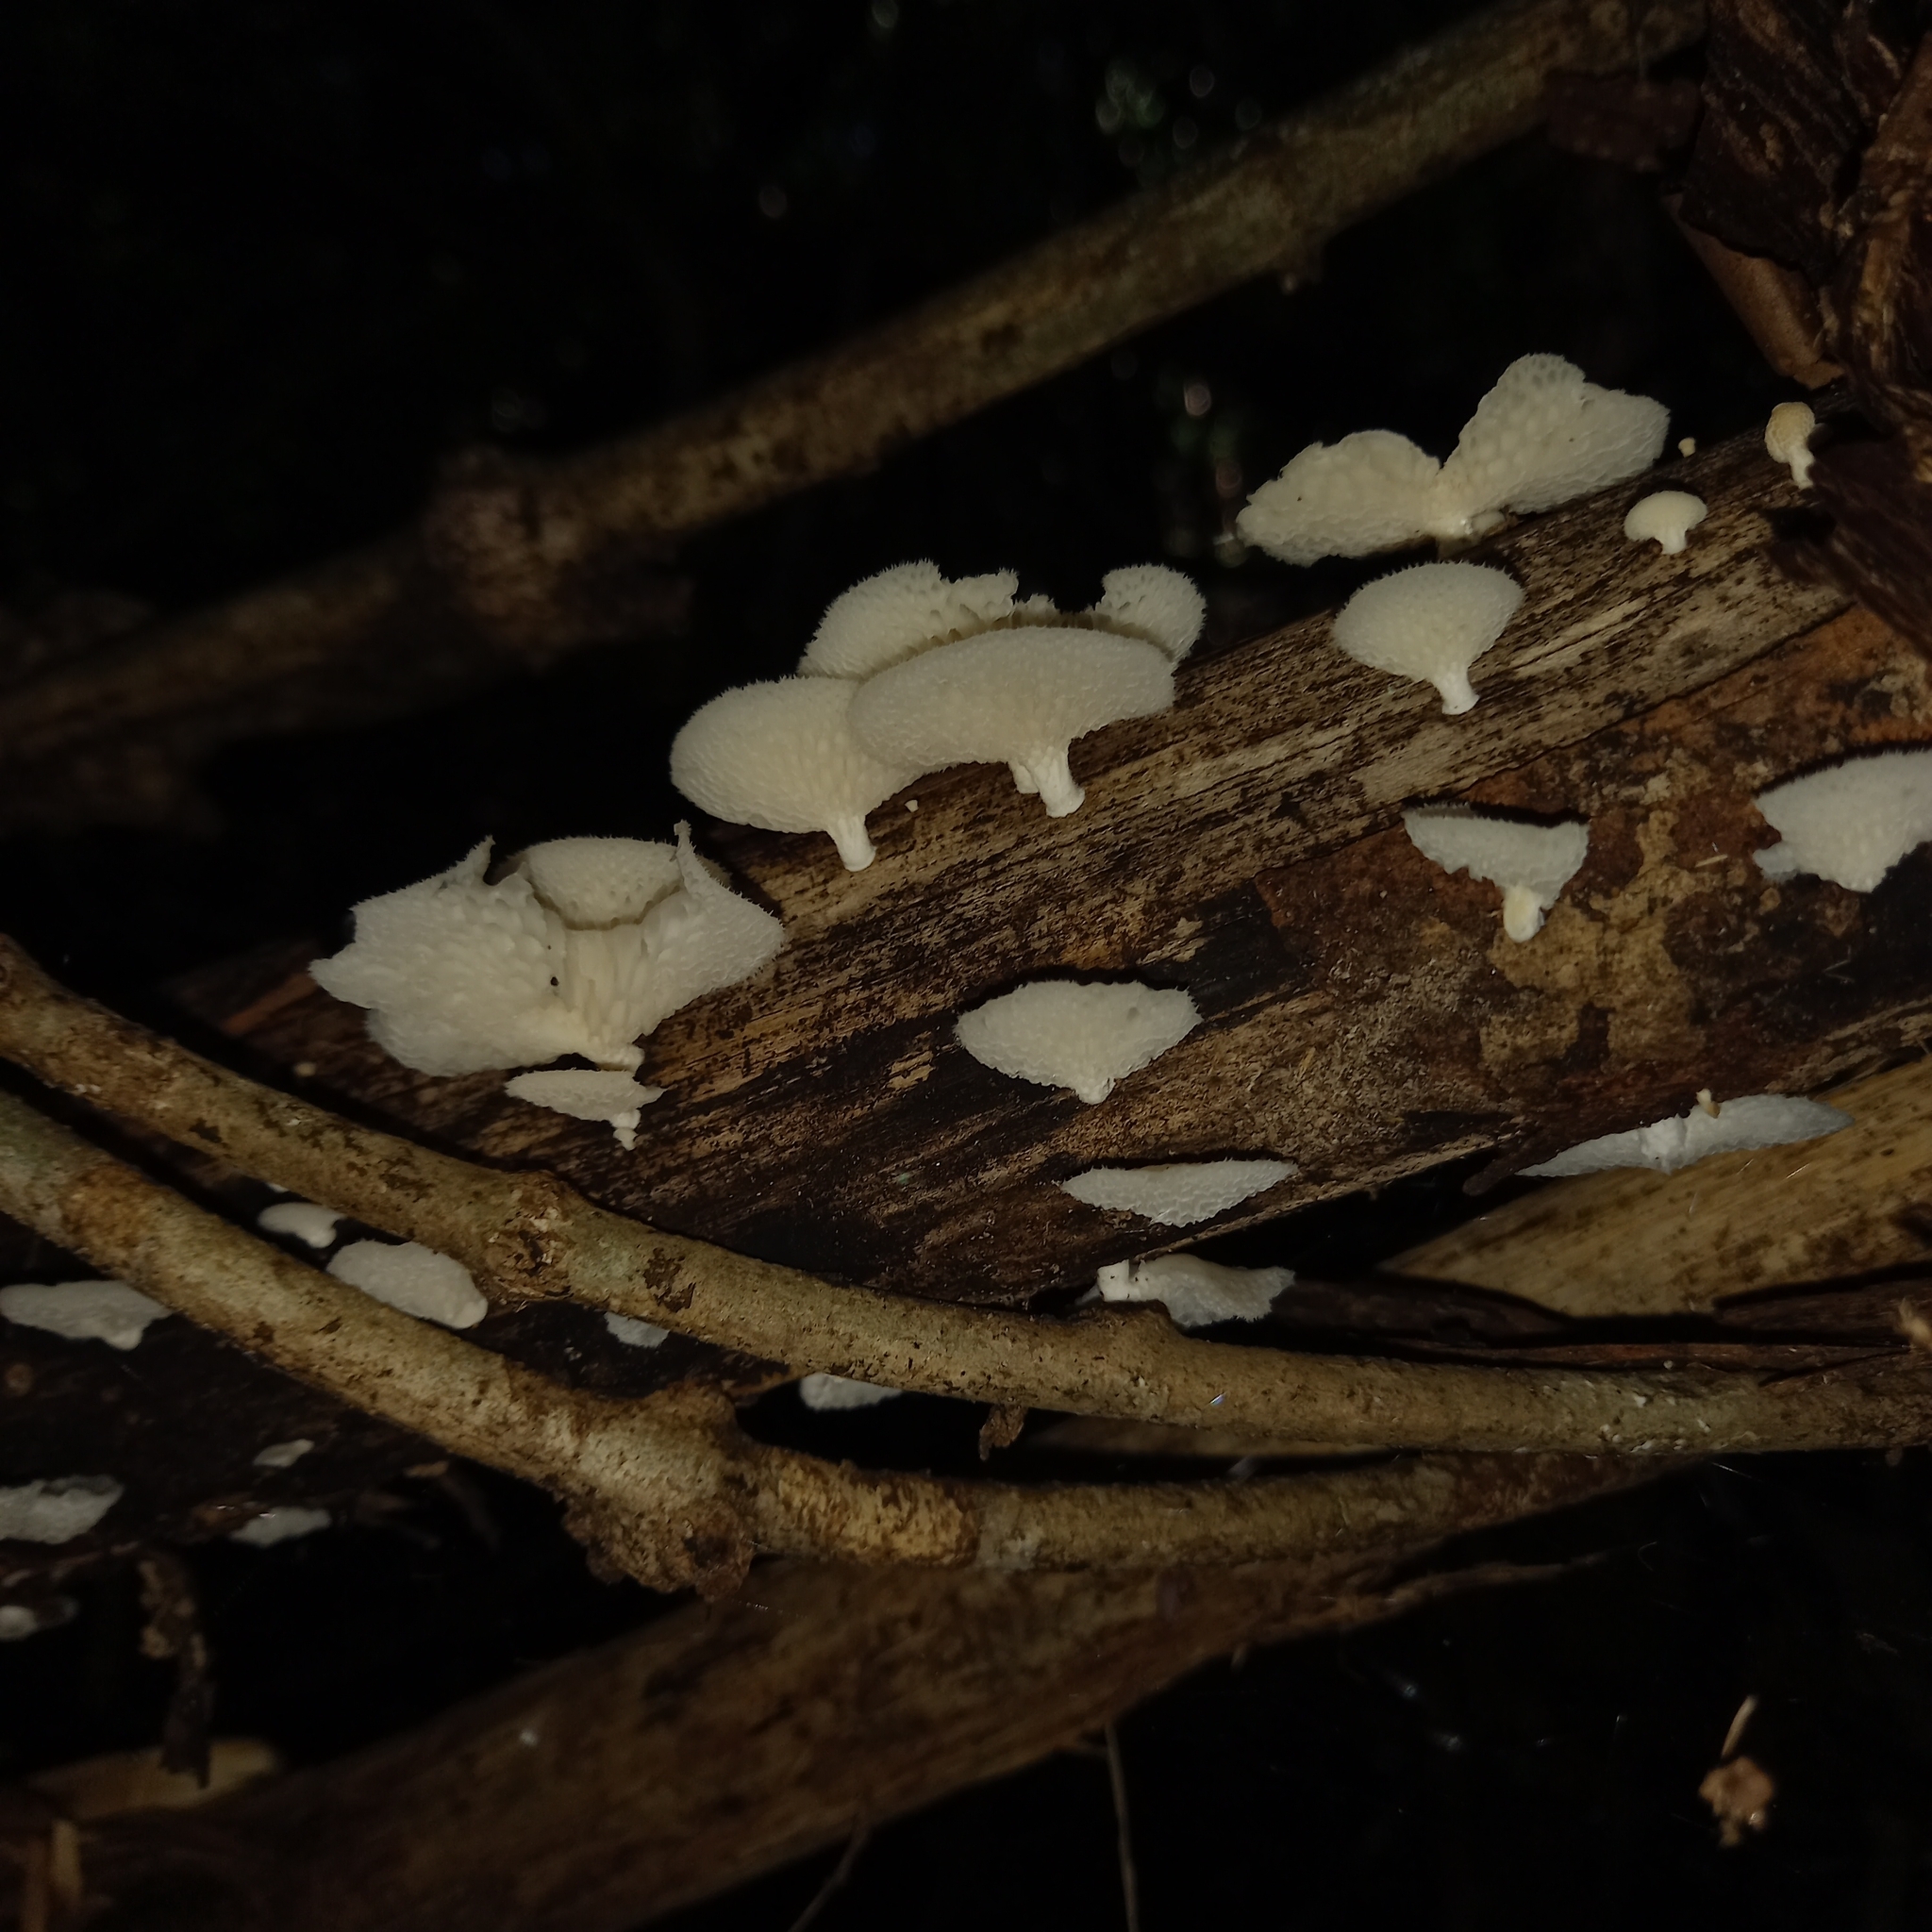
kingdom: Fungi
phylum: Basidiomycota
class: Agaricomycetes
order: Polyporales
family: Polyporaceae
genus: Favolus
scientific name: Favolus tenuiculus
